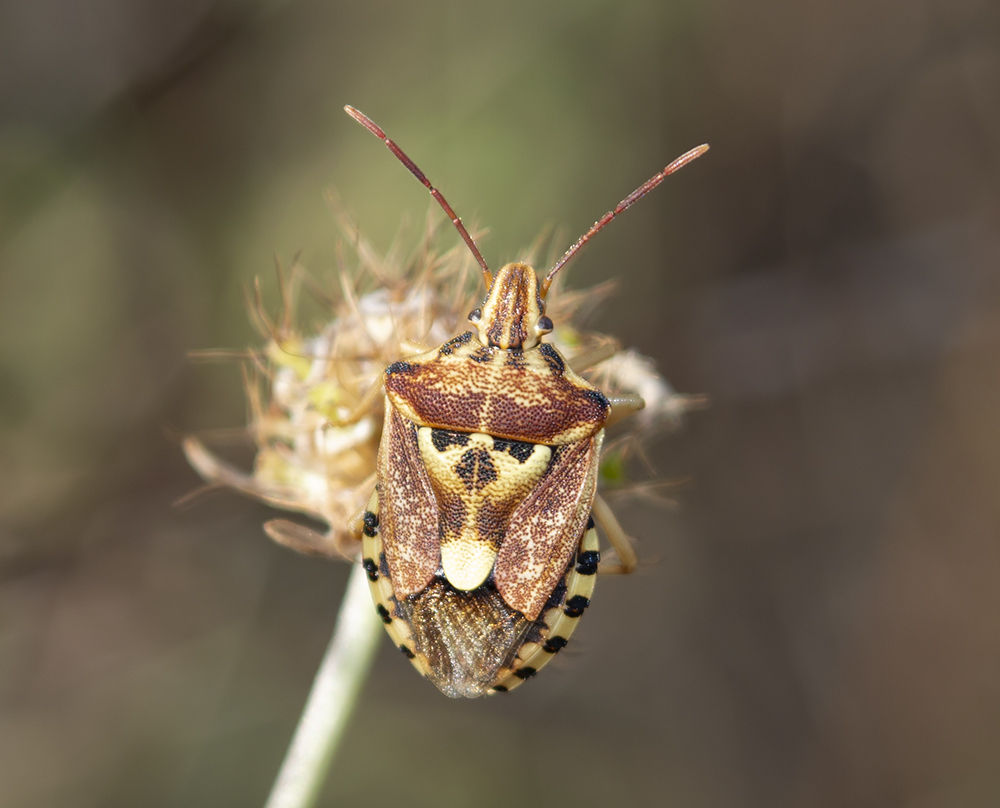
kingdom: Animalia
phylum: Arthropoda
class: Insecta
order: Hemiptera
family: Miridae
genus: Orthops
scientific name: Orthops kalmii
